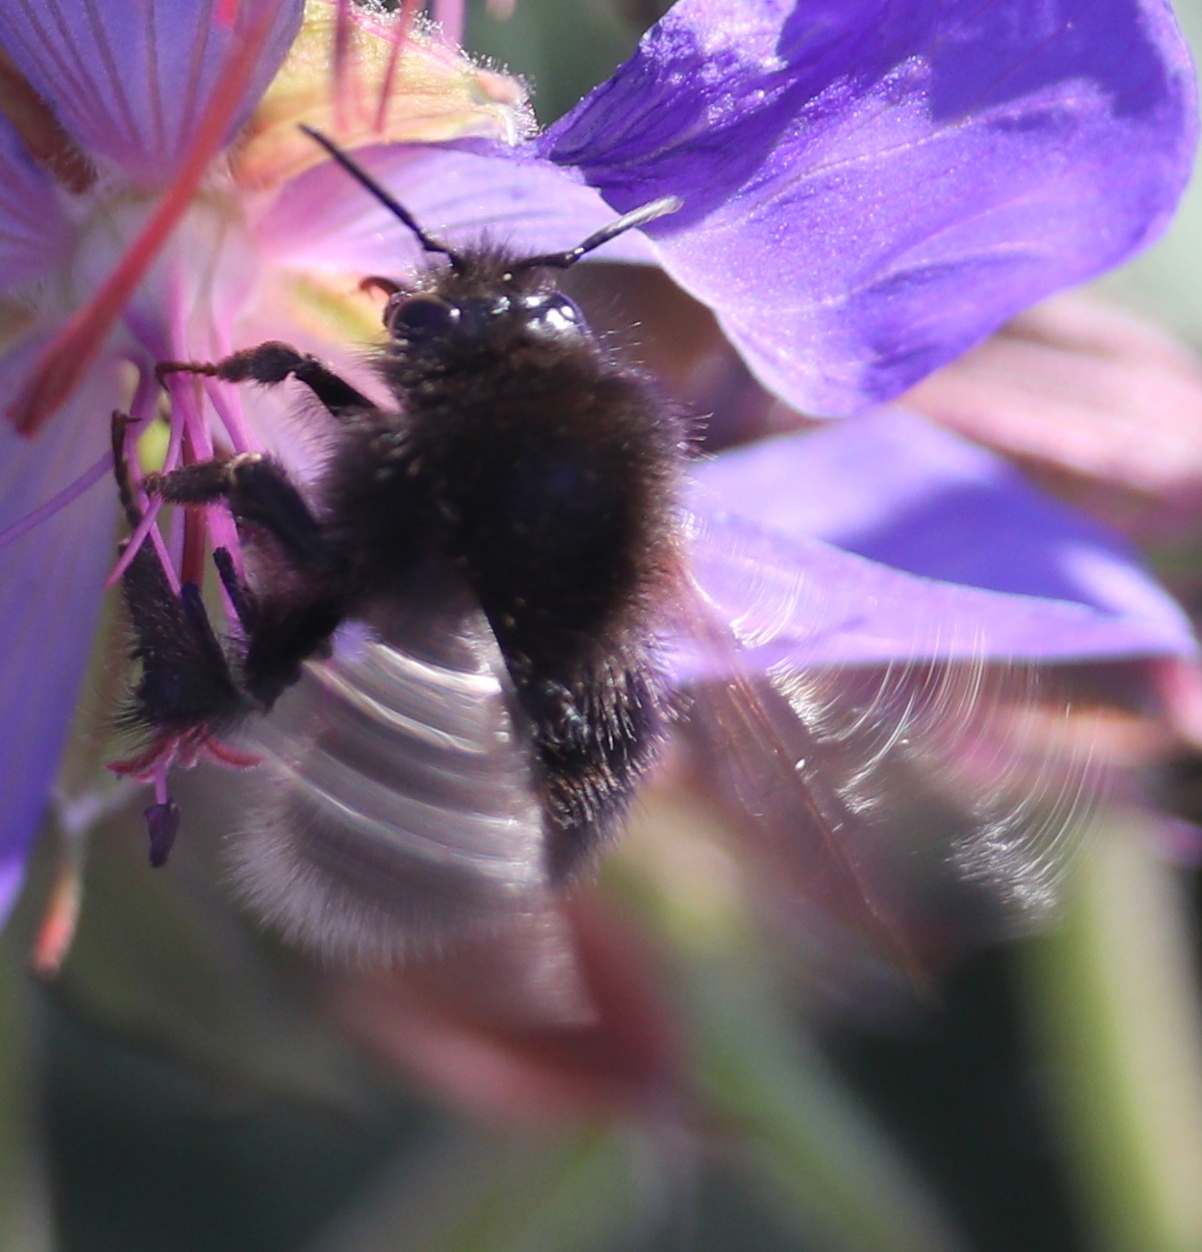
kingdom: Animalia
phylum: Arthropoda
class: Insecta
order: Hymenoptera
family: Apidae
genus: Bombus
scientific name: Bombus hypnorum
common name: New garden bumblebee
